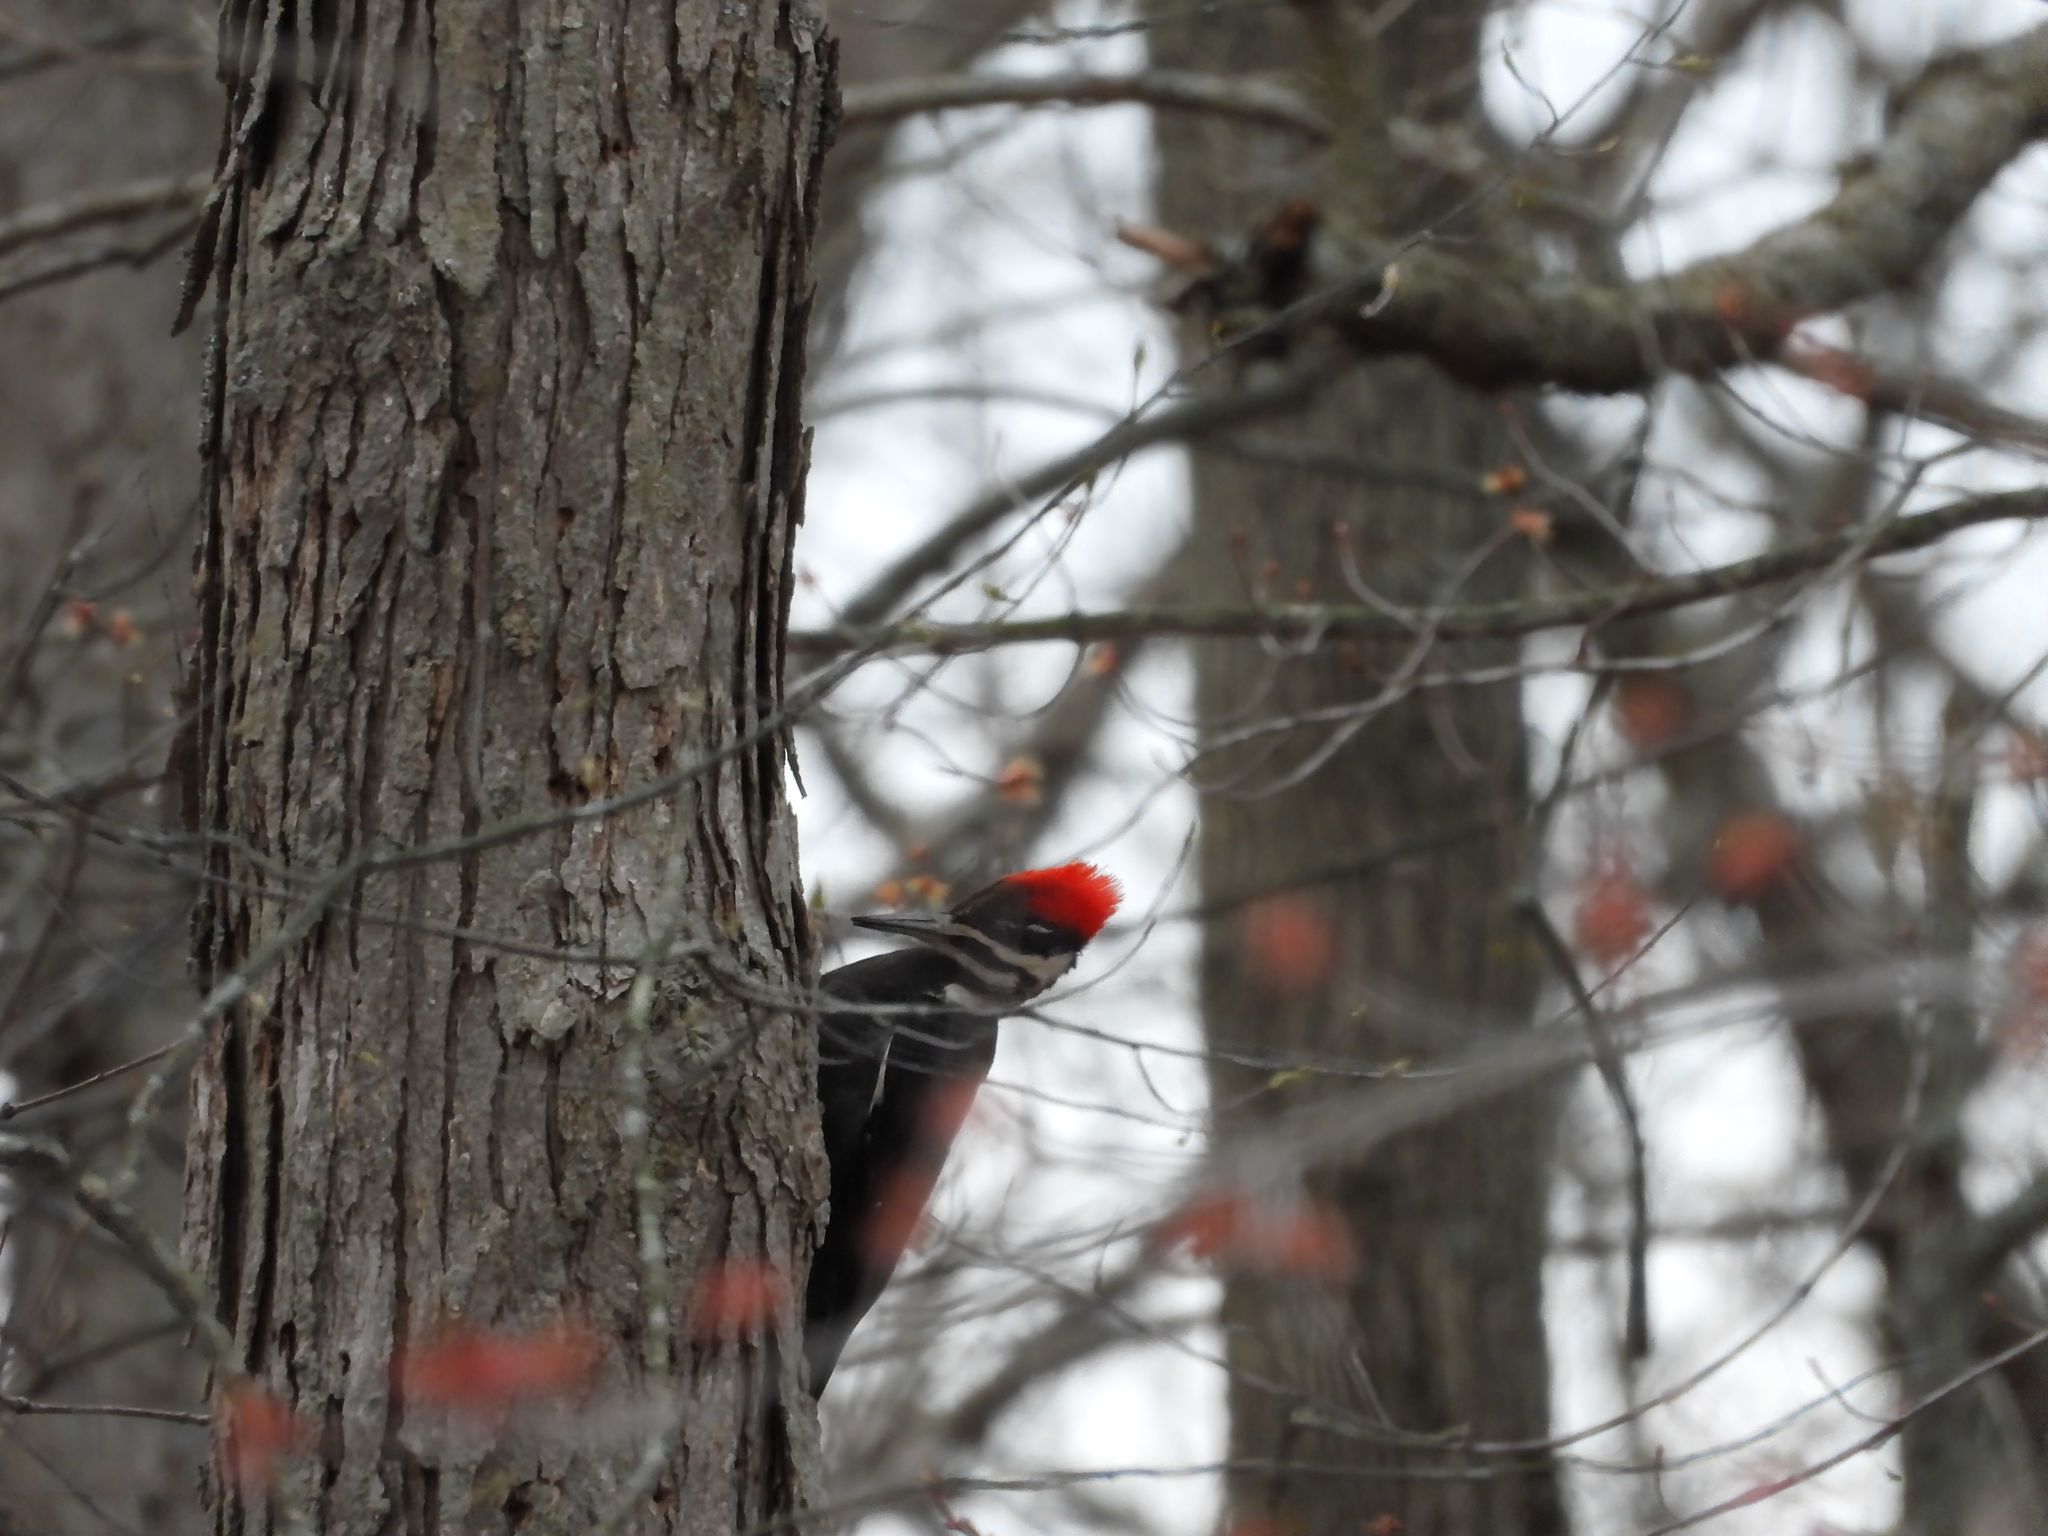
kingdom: Animalia
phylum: Chordata
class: Aves
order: Piciformes
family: Picidae
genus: Dryocopus
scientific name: Dryocopus pileatus
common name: Pileated woodpecker
